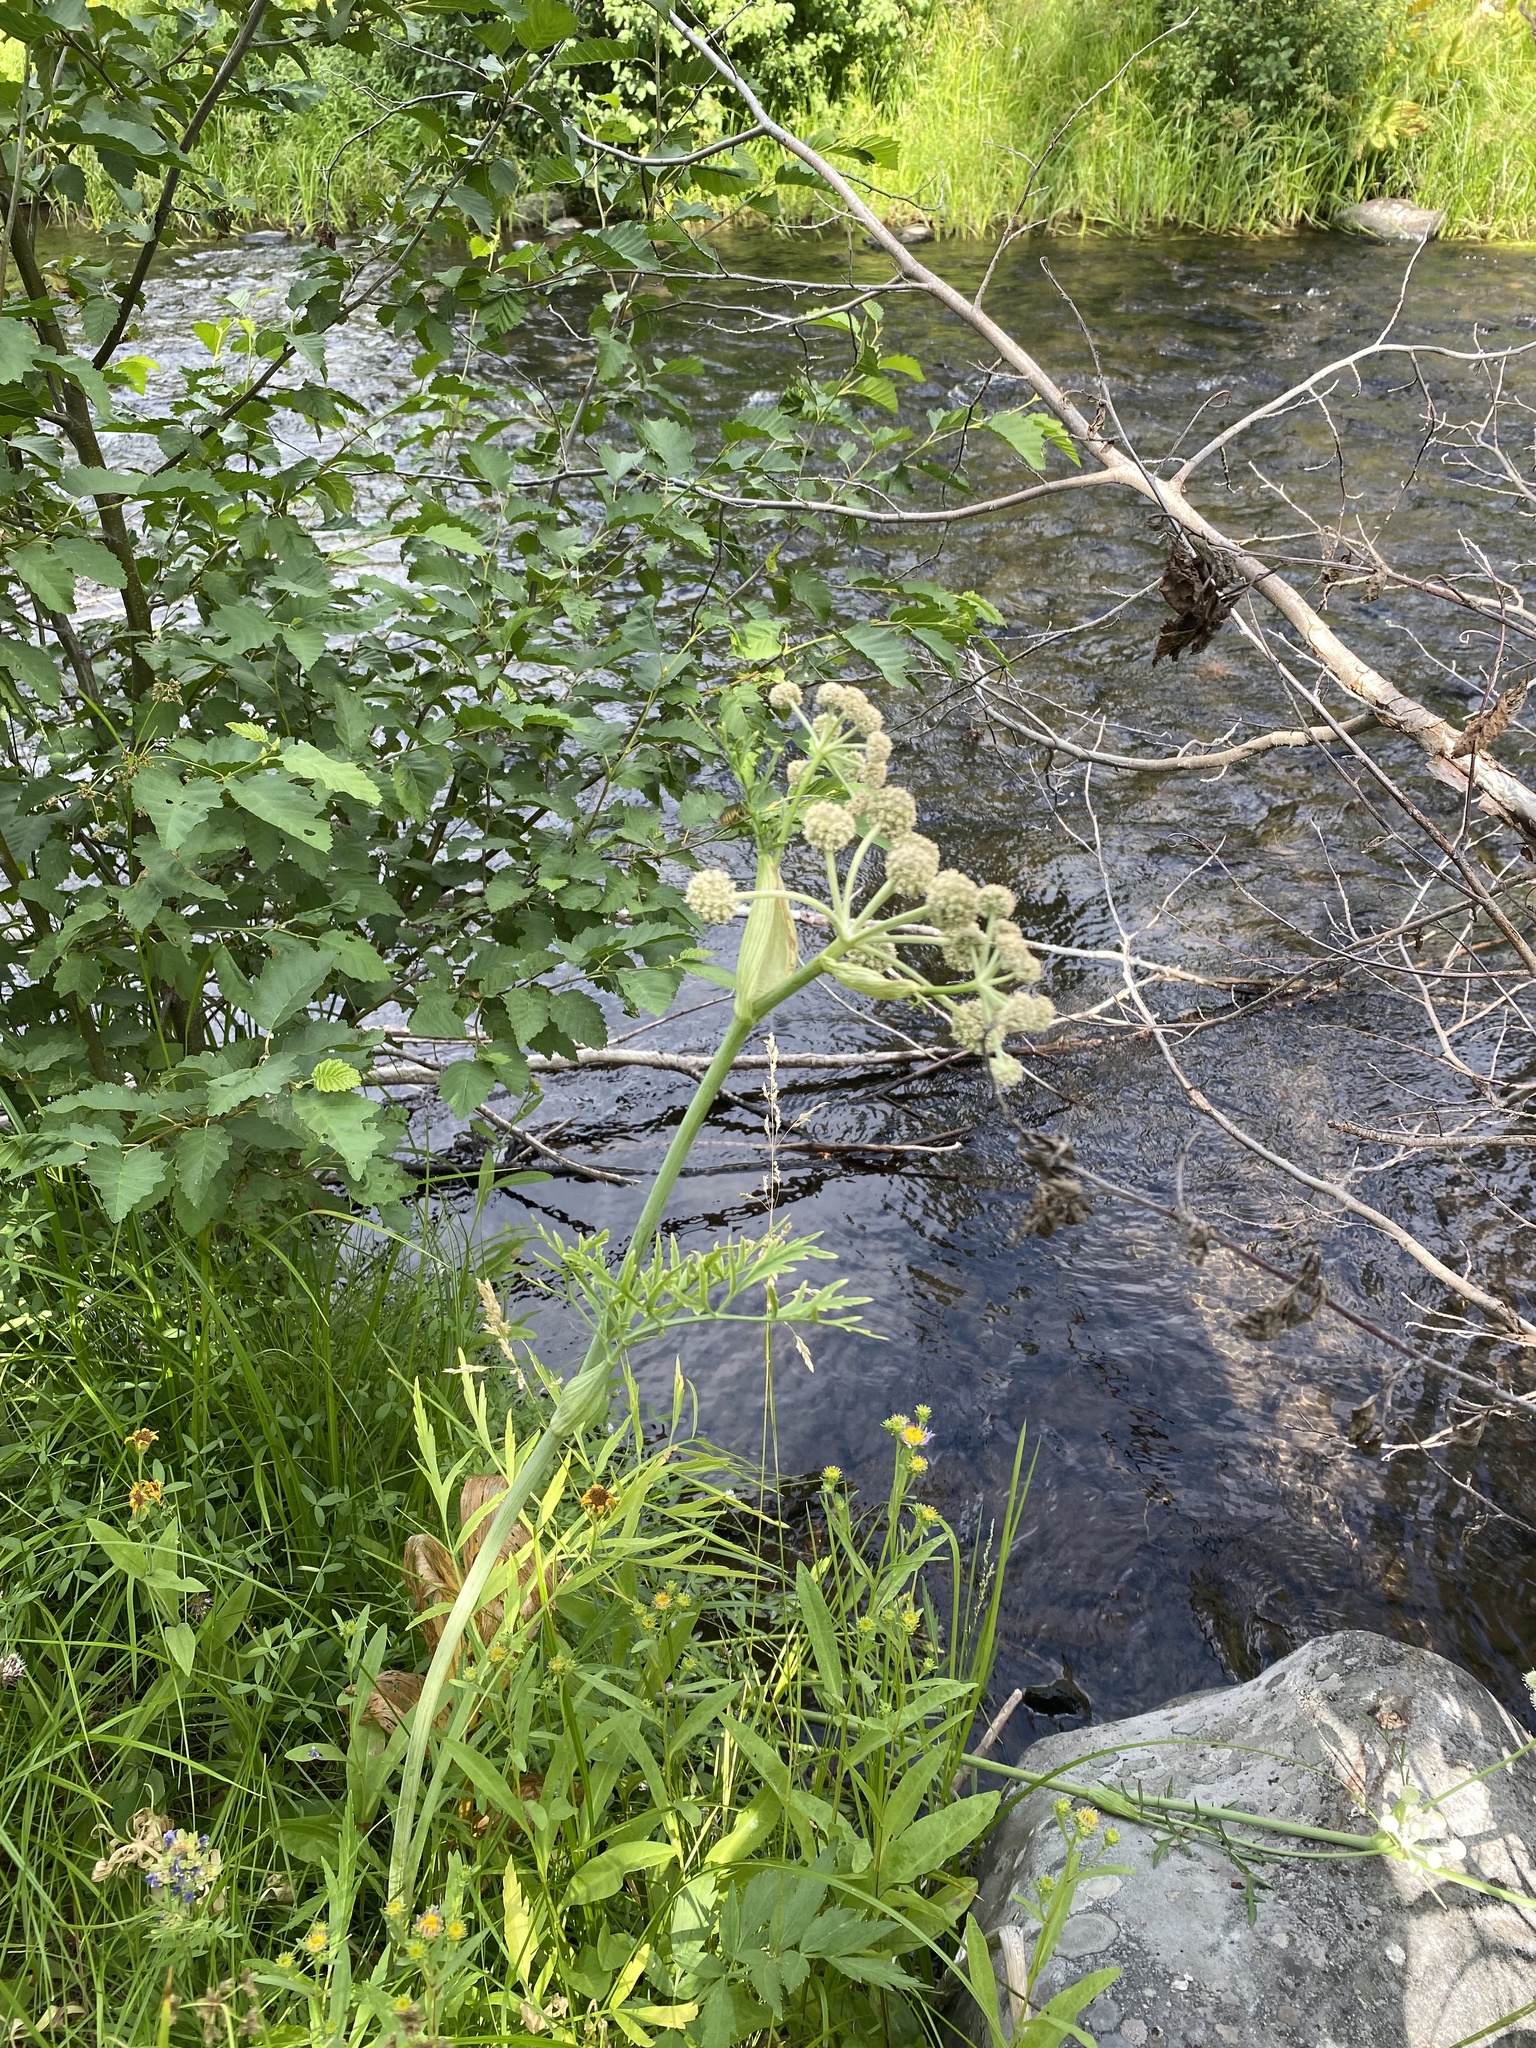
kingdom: Plantae
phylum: Tracheophyta
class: Magnoliopsida
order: Apiales
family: Apiaceae
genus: Angelica
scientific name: Angelica capitellata
